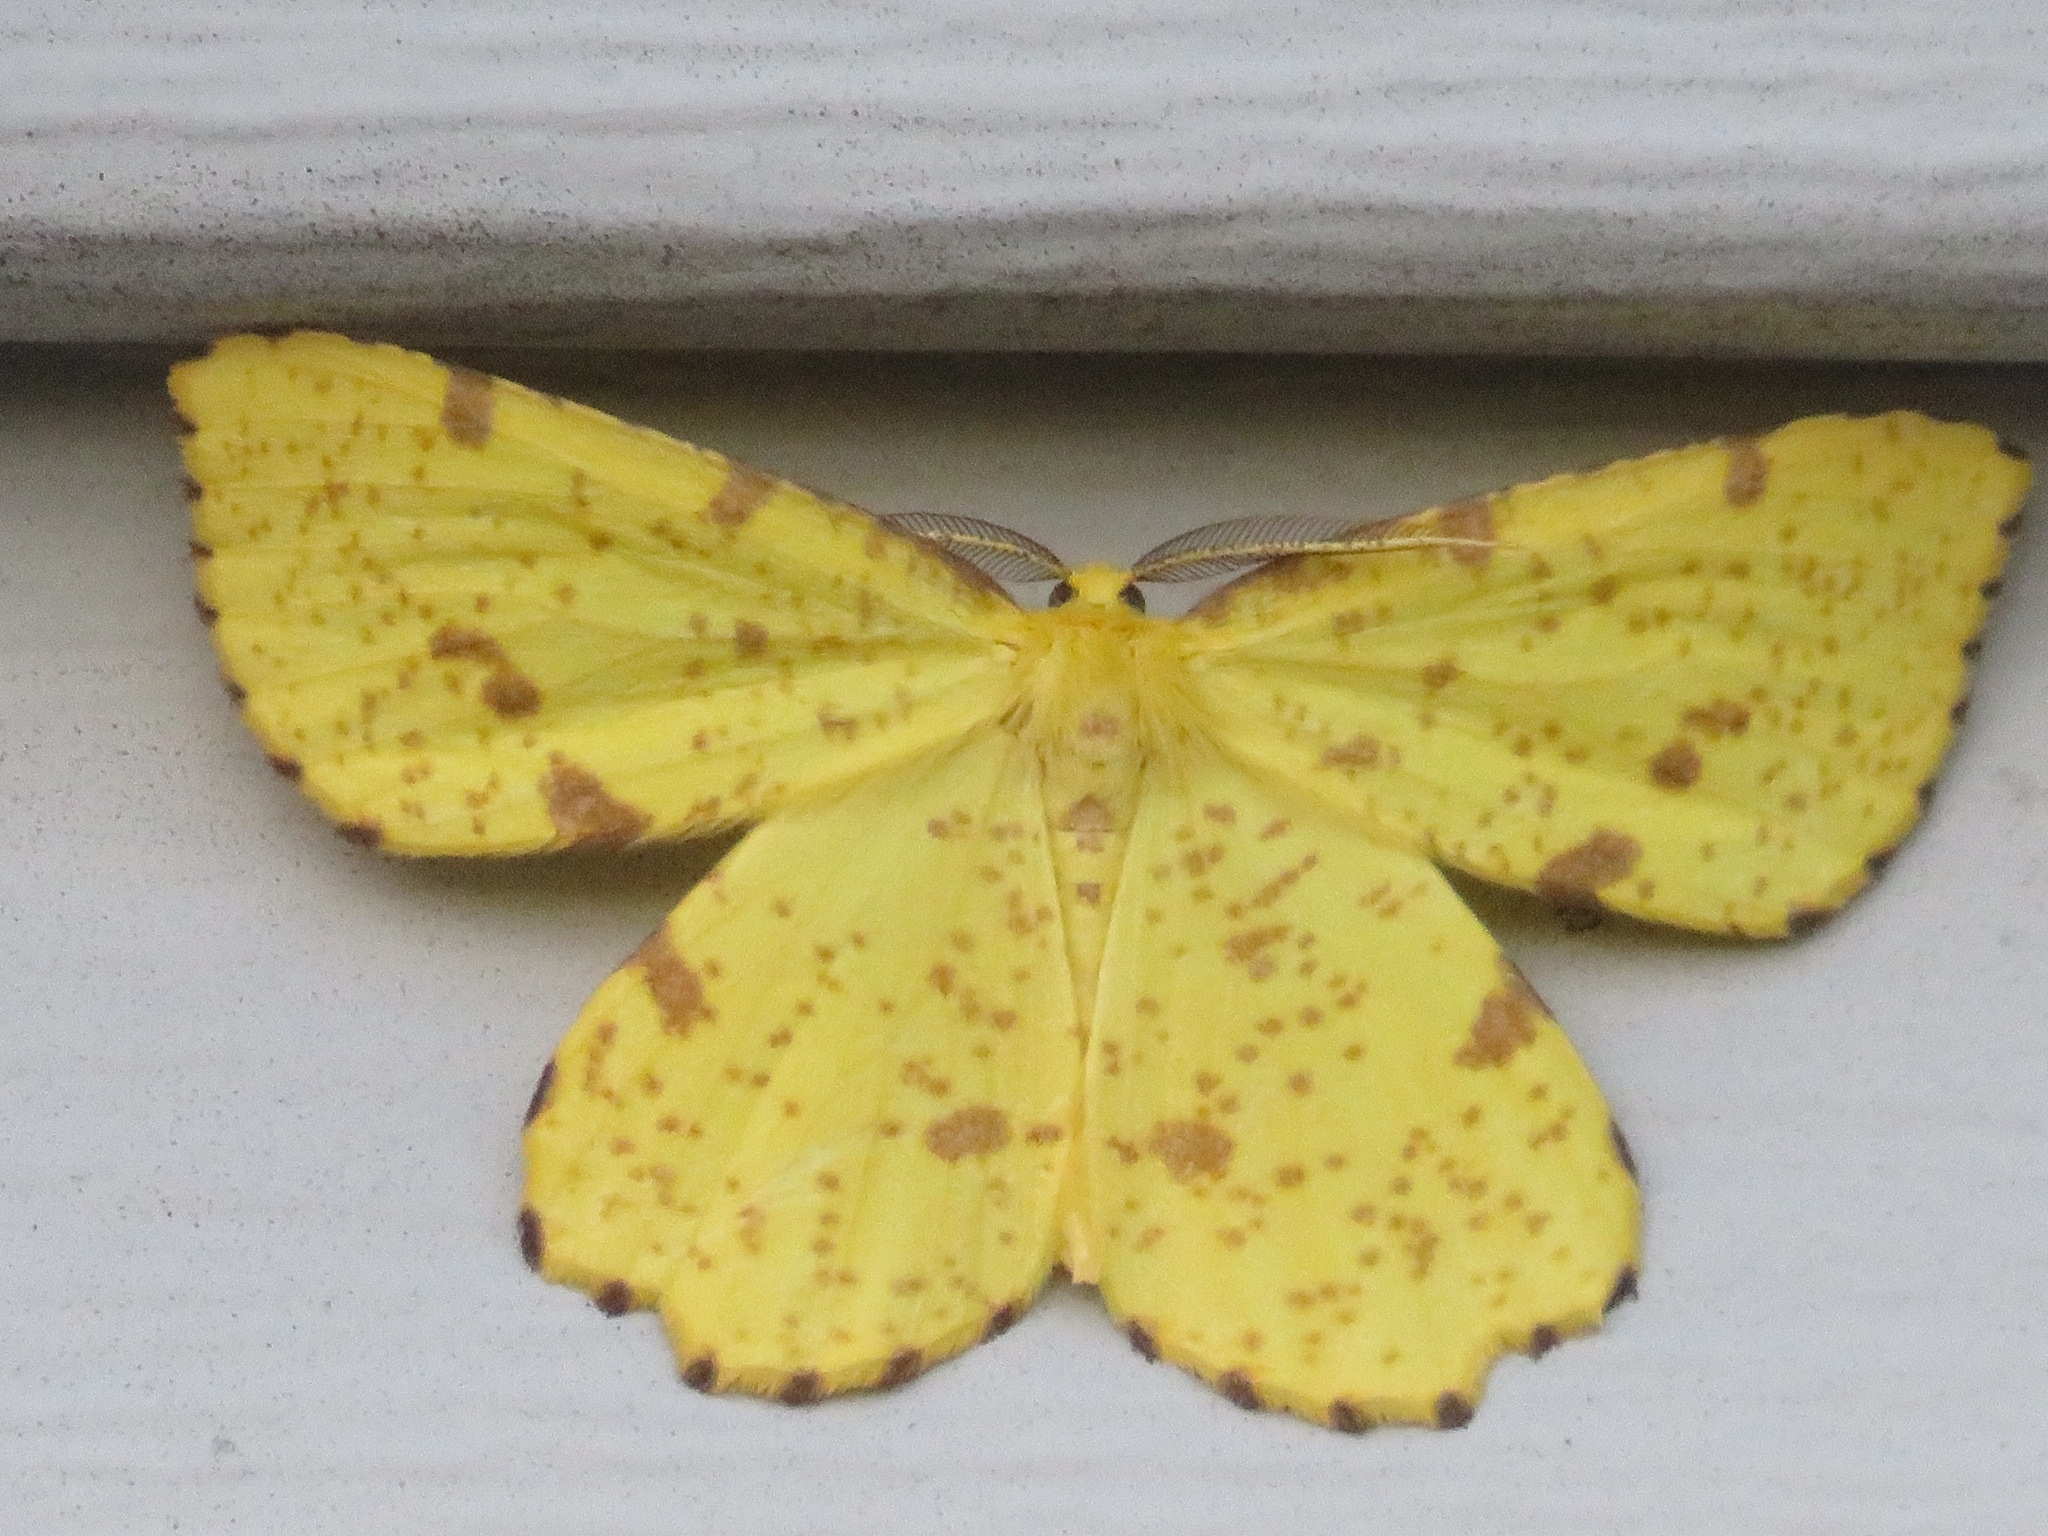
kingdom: Animalia
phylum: Arthropoda
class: Insecta
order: Lepidoptera
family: Geometridae
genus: Xanthotype
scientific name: Xanthotype
